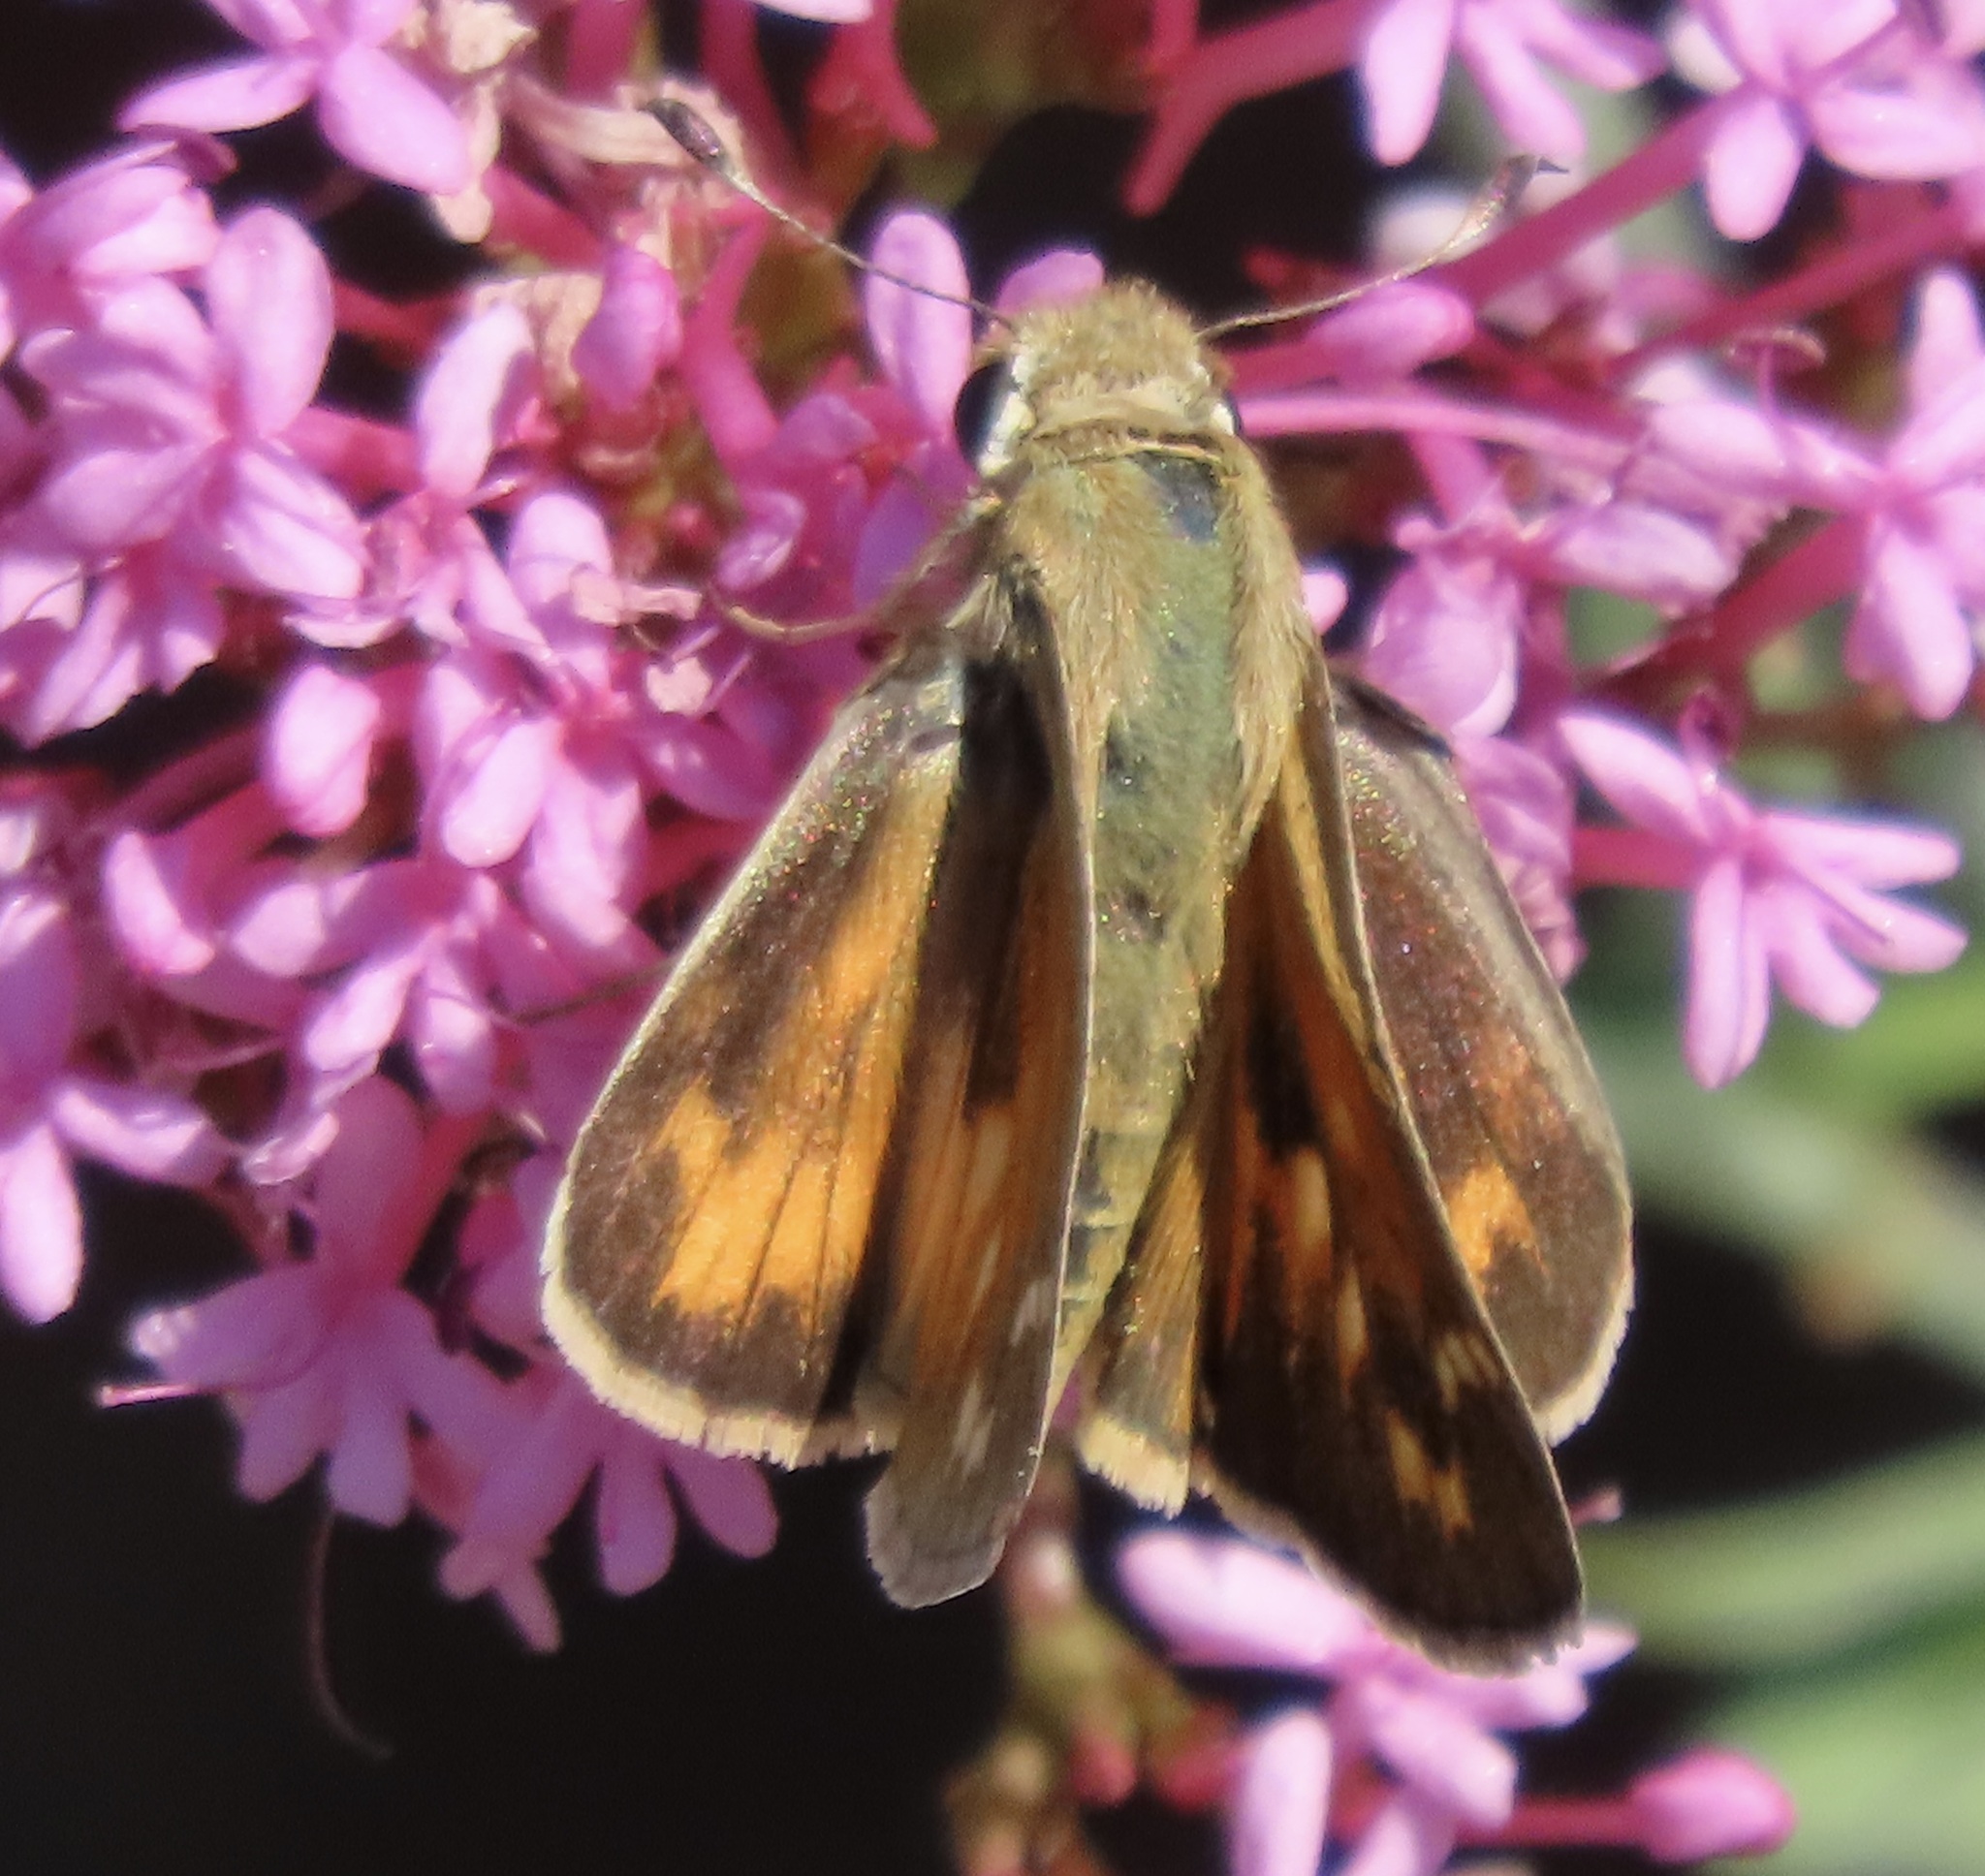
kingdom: Animalia
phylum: Arthropoda
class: Insecta
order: Lepidoptera
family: Hesperiidae
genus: Atalopedes
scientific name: Atalopedes campestris
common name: Sachem
